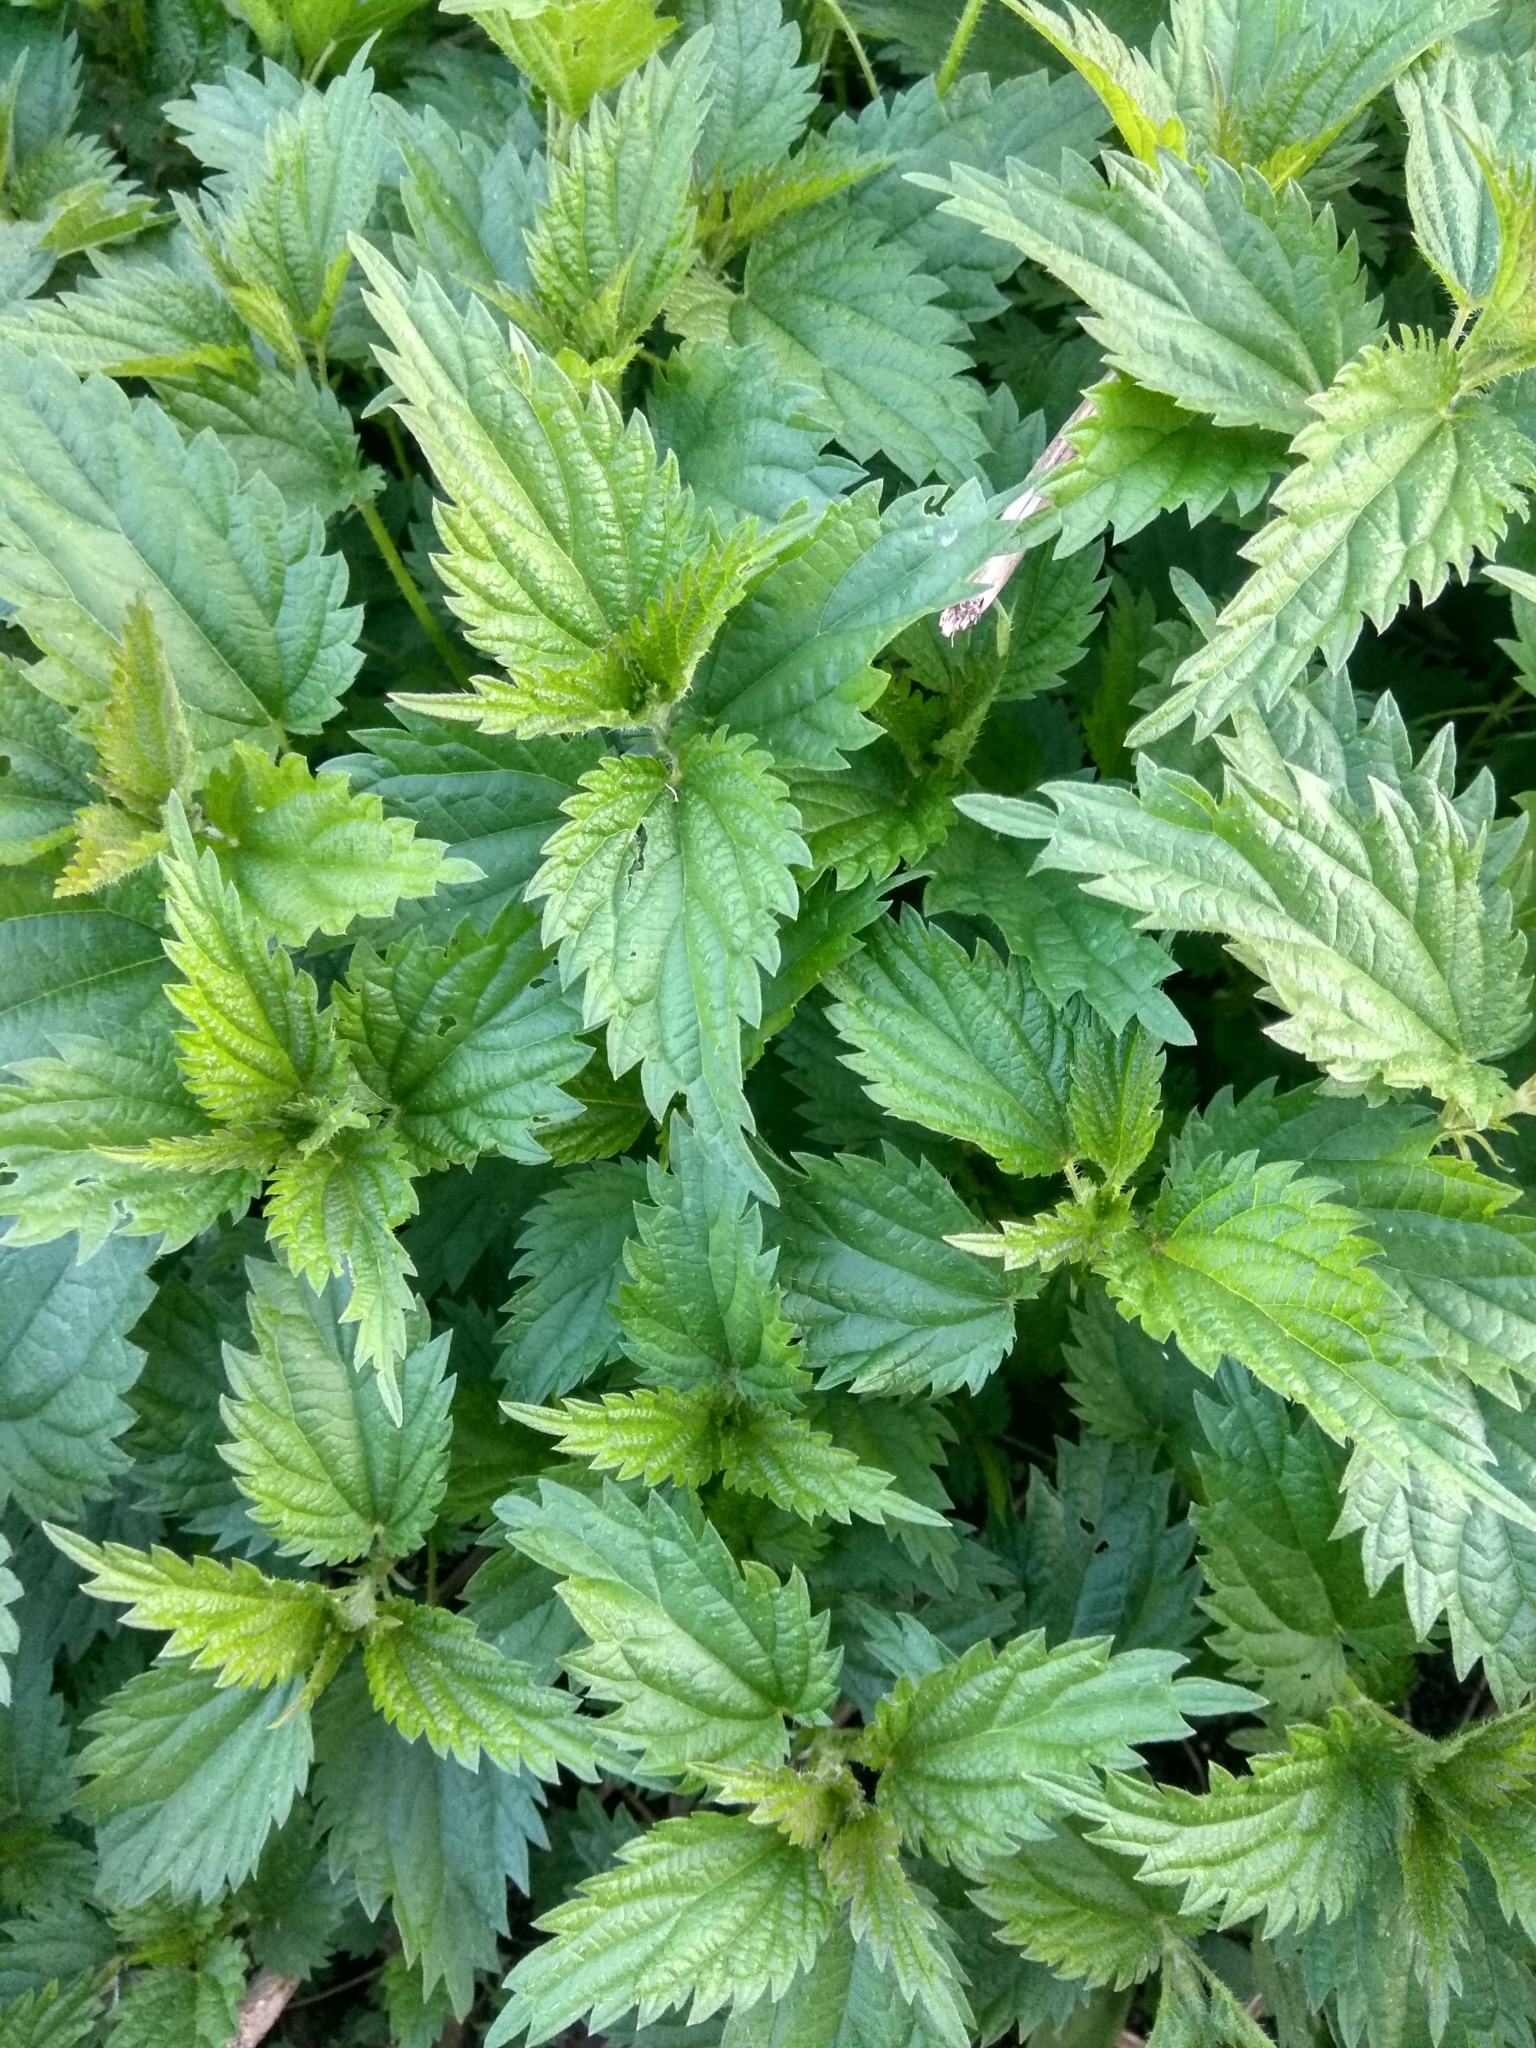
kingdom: Plantae
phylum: Tracheophyta
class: Magnoliopsida
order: Rosales
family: Urticaceae
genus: Urtica
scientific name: Urtica dioica
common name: Common nettle
